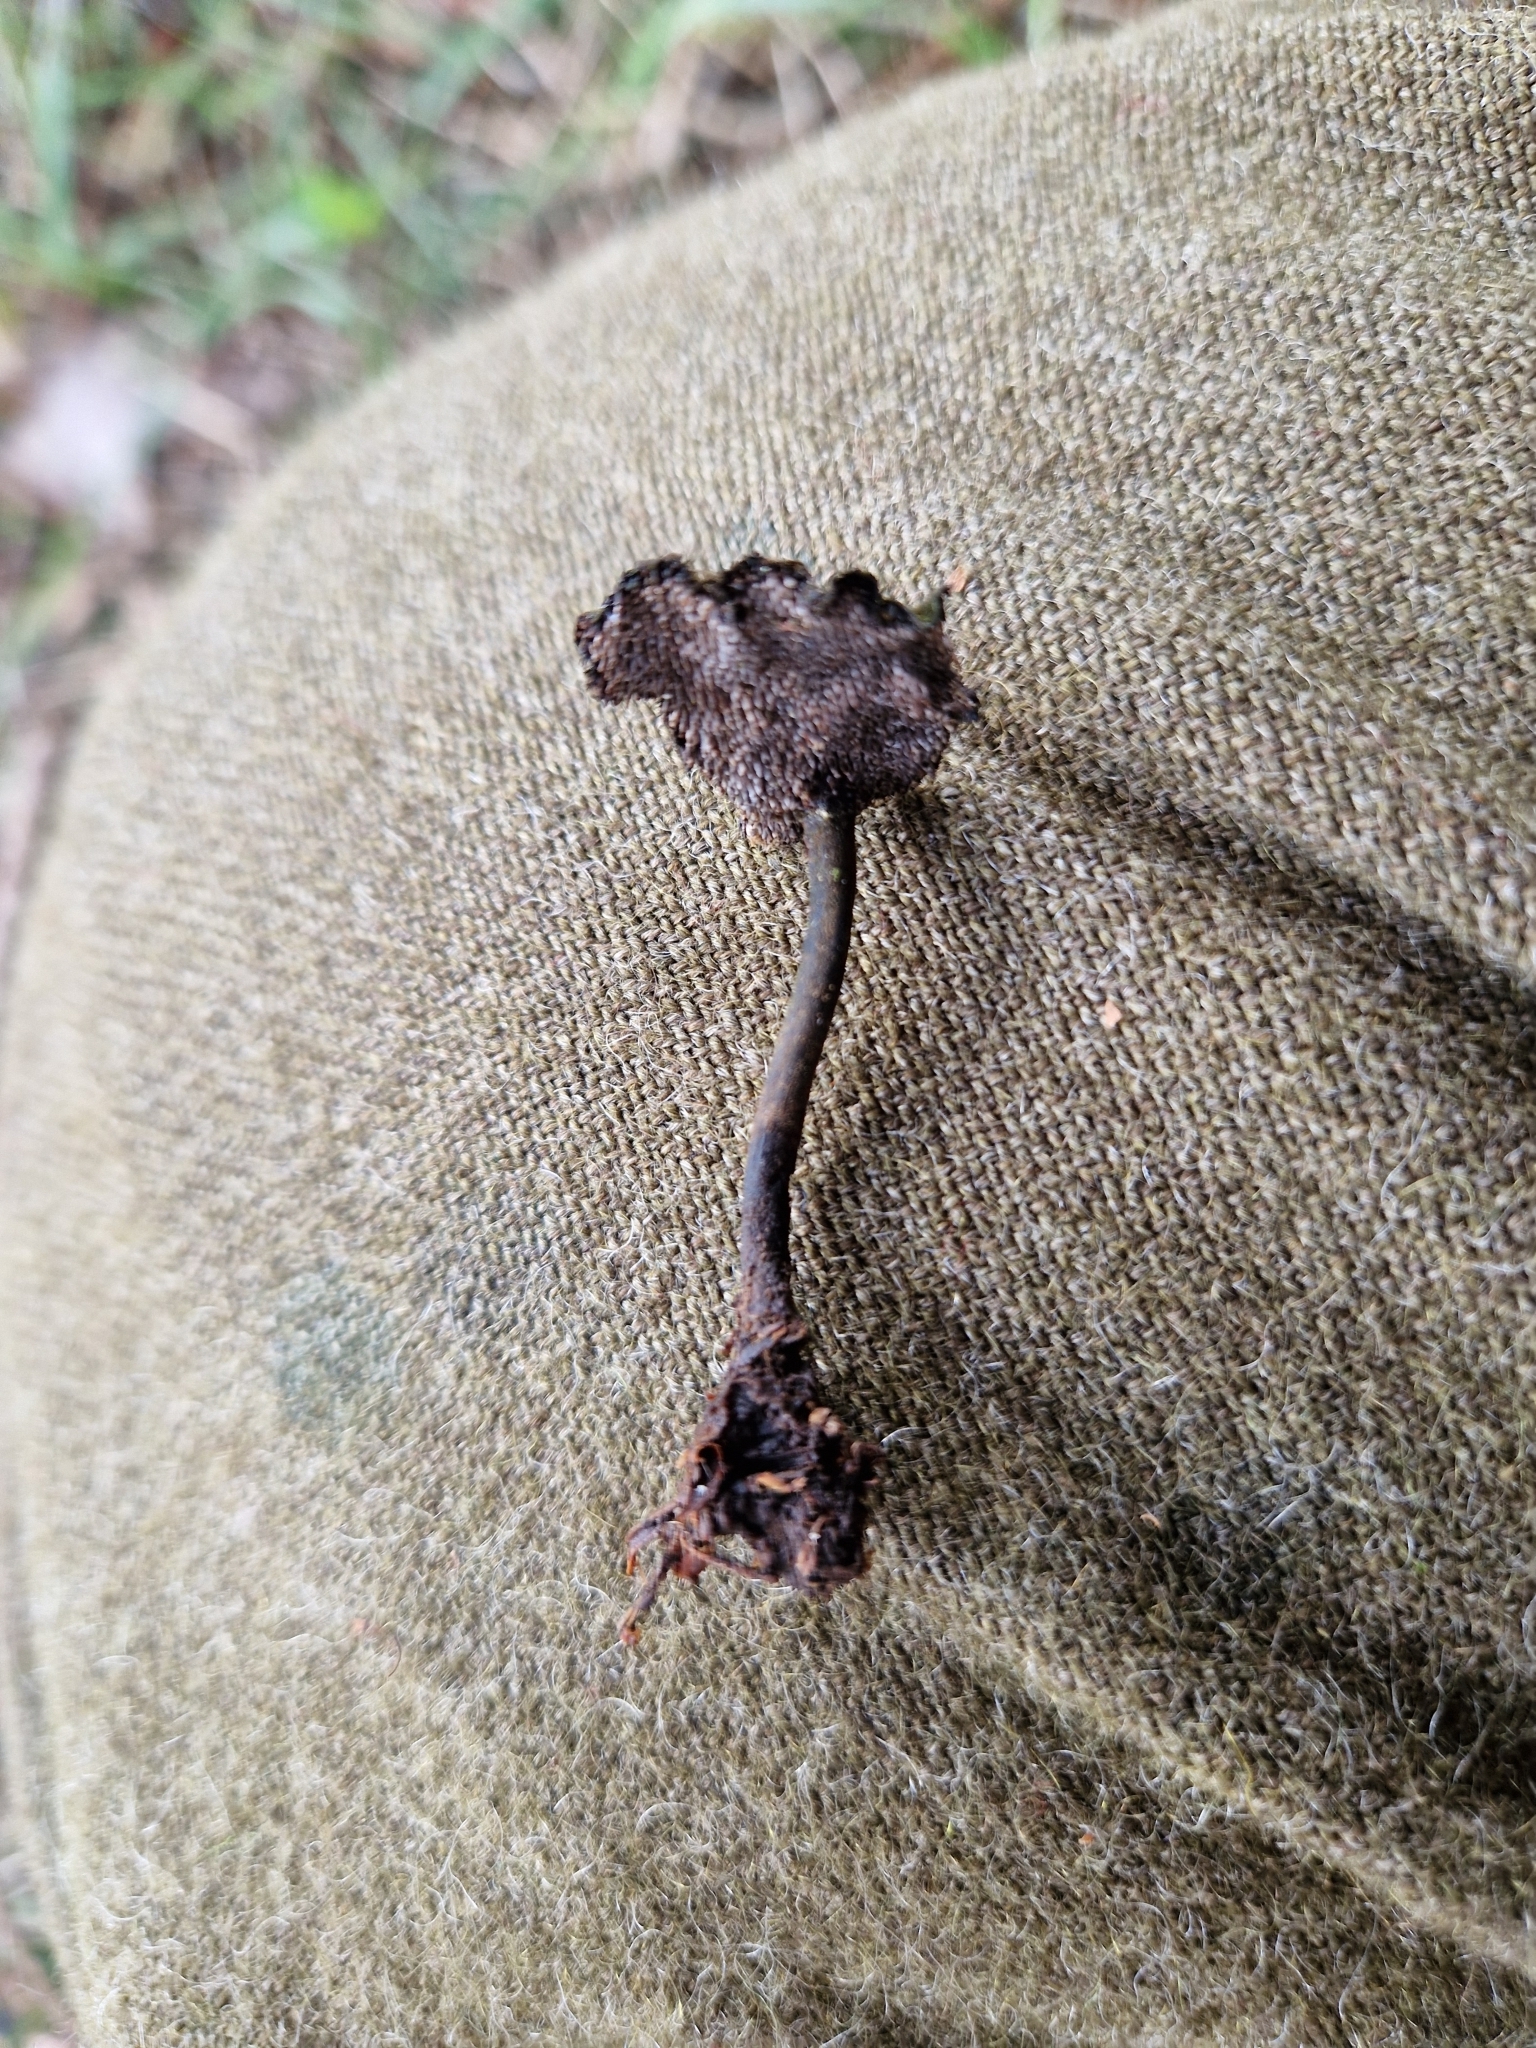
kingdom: Fungi
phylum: Basidiomycota
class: Agaricomycetes
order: Russulales
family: Auriscalpiaceae
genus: Auriscalpium
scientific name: Auriscalpium vulgare
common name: Earpick fungus
